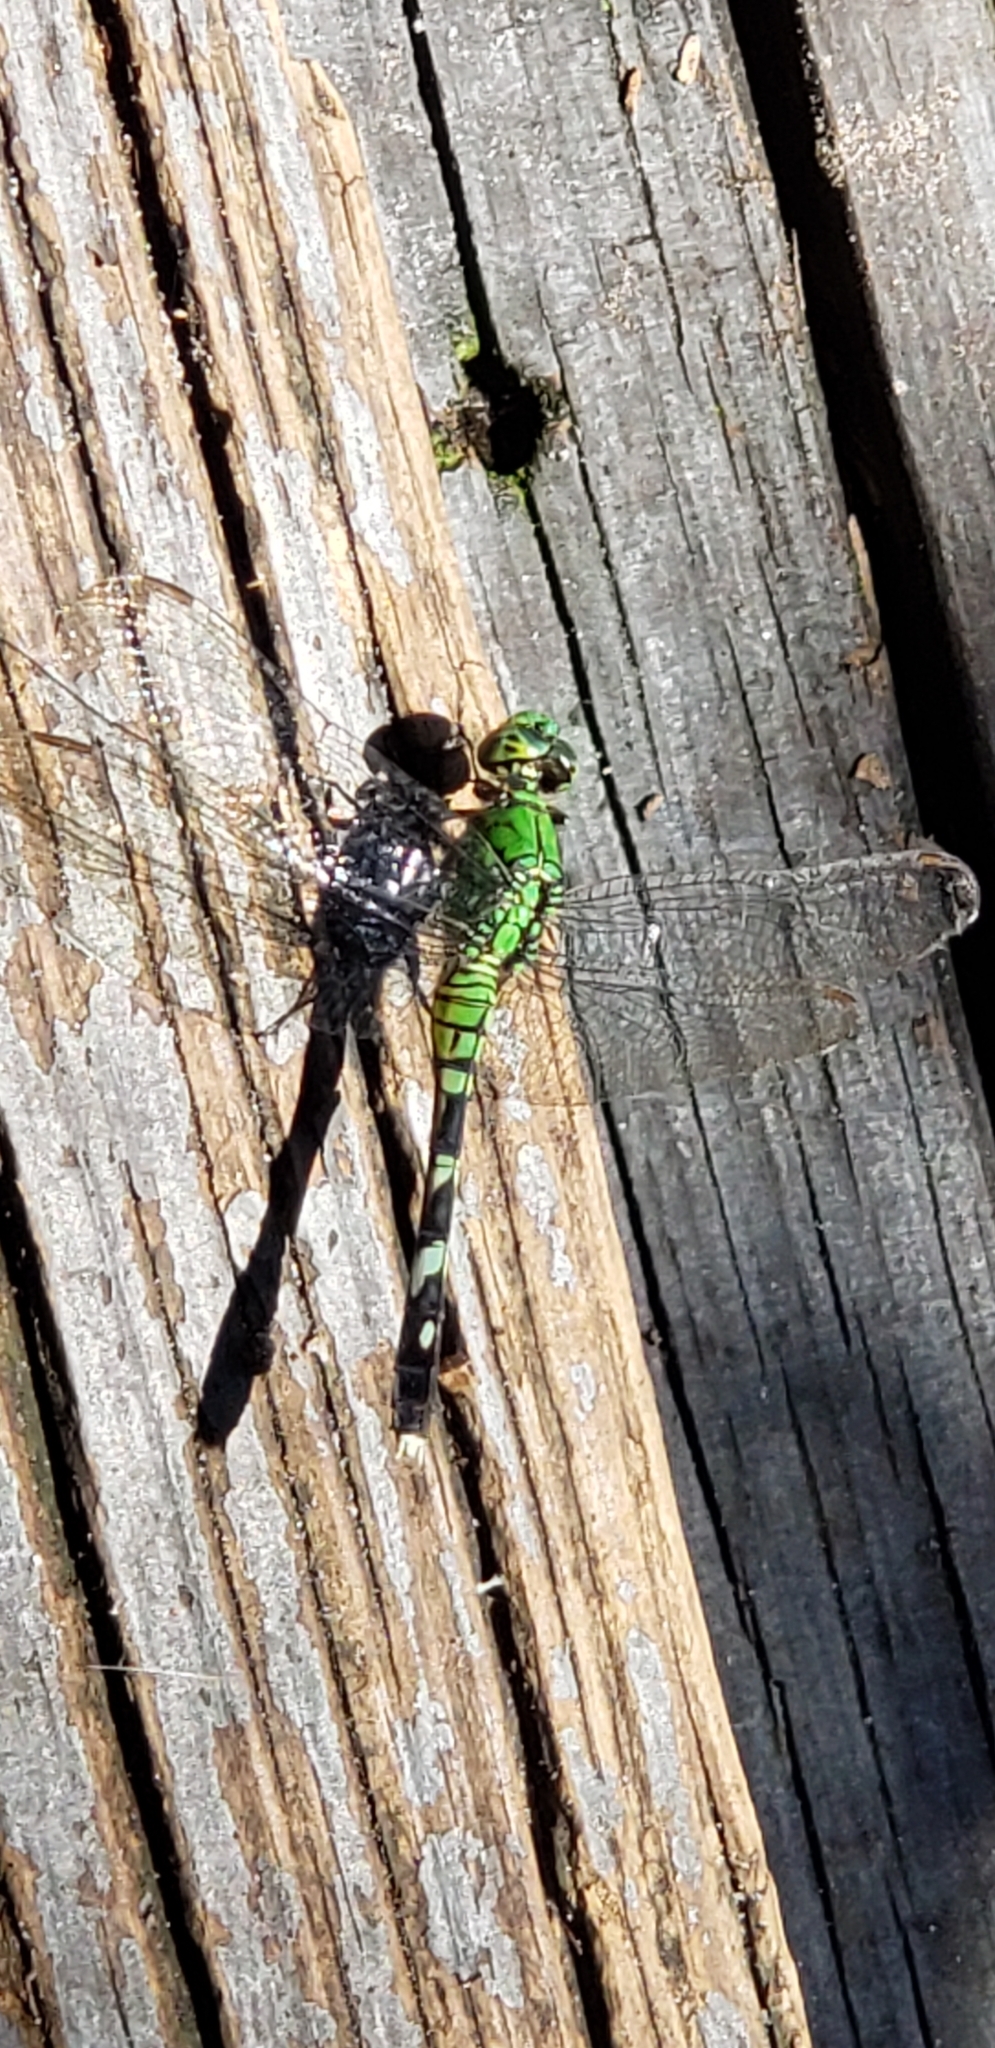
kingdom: Animalia
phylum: Arthropoda
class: Insecta
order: Odonata
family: Libellulidae
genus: Erythemis
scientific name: Erythemis simplicicollis
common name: Eastern pondhawk
